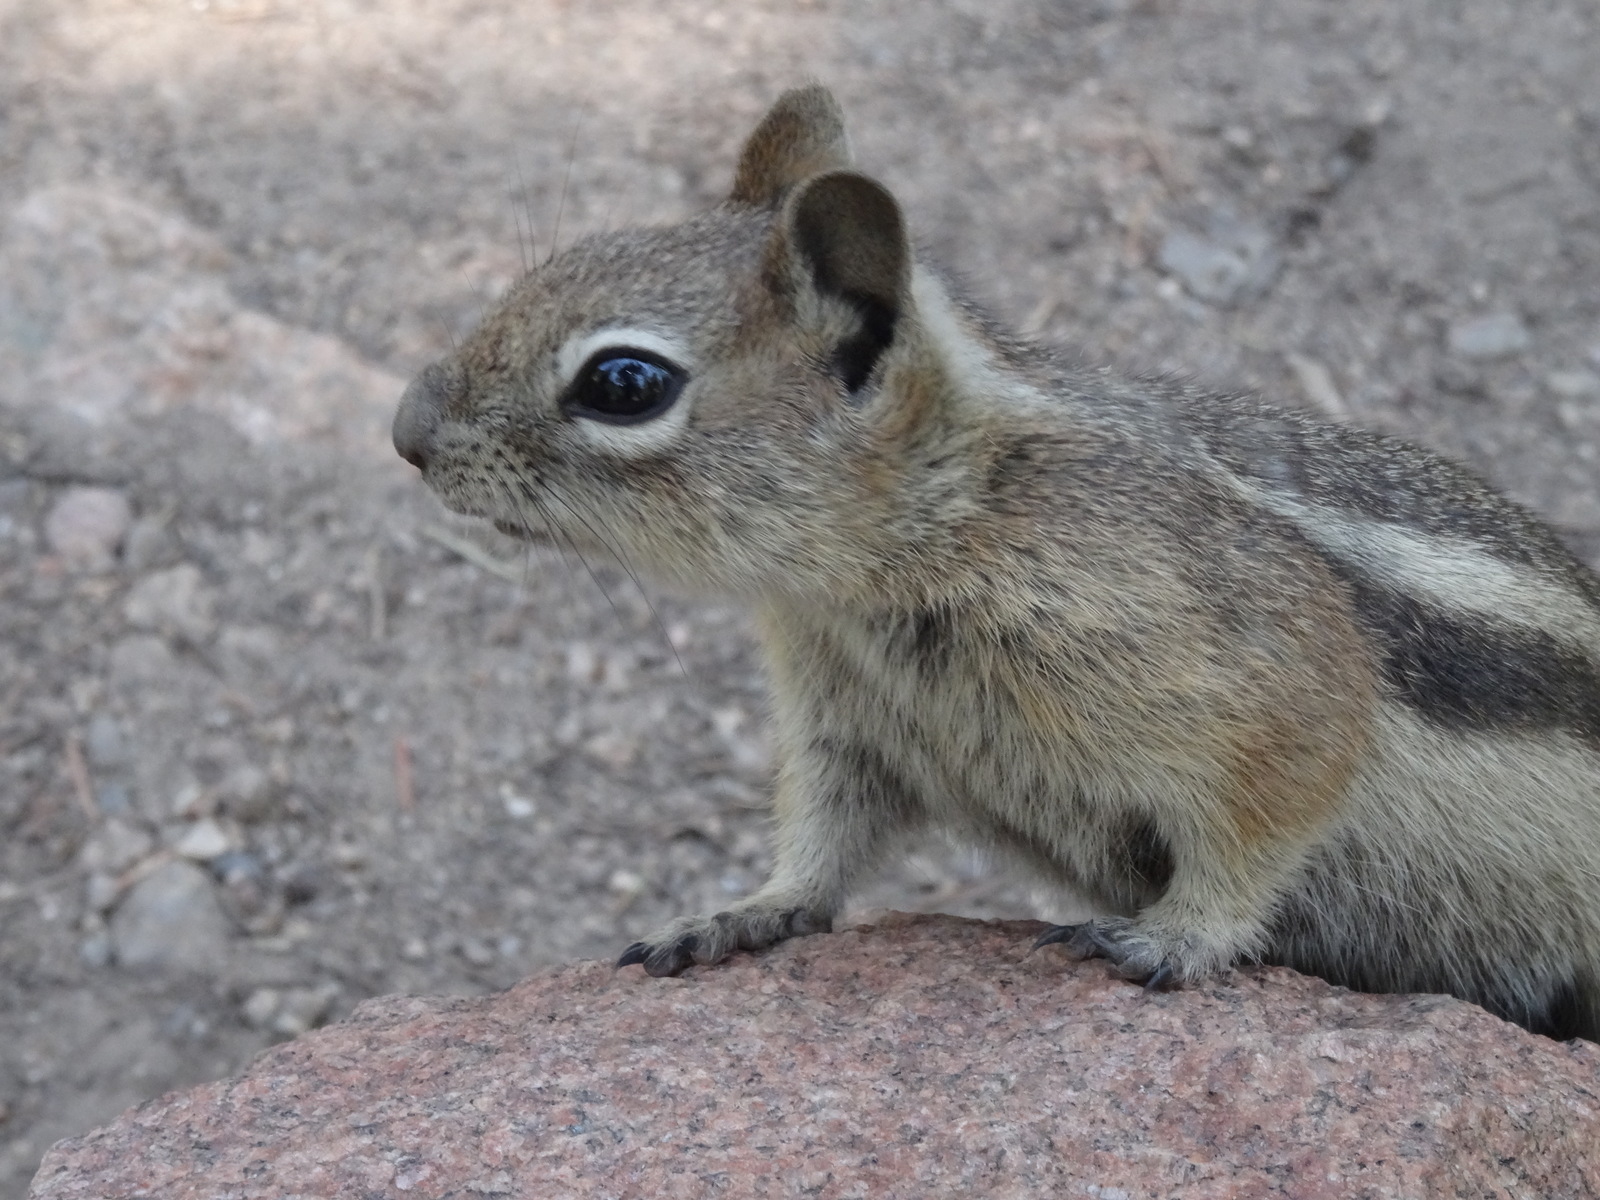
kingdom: Animalia
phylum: Chordata
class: Mammalia
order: Rodentia
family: Sciuridae
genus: Callospermophilus
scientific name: Callospermophilus lateralis
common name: Golden-mantled ground squirrel
